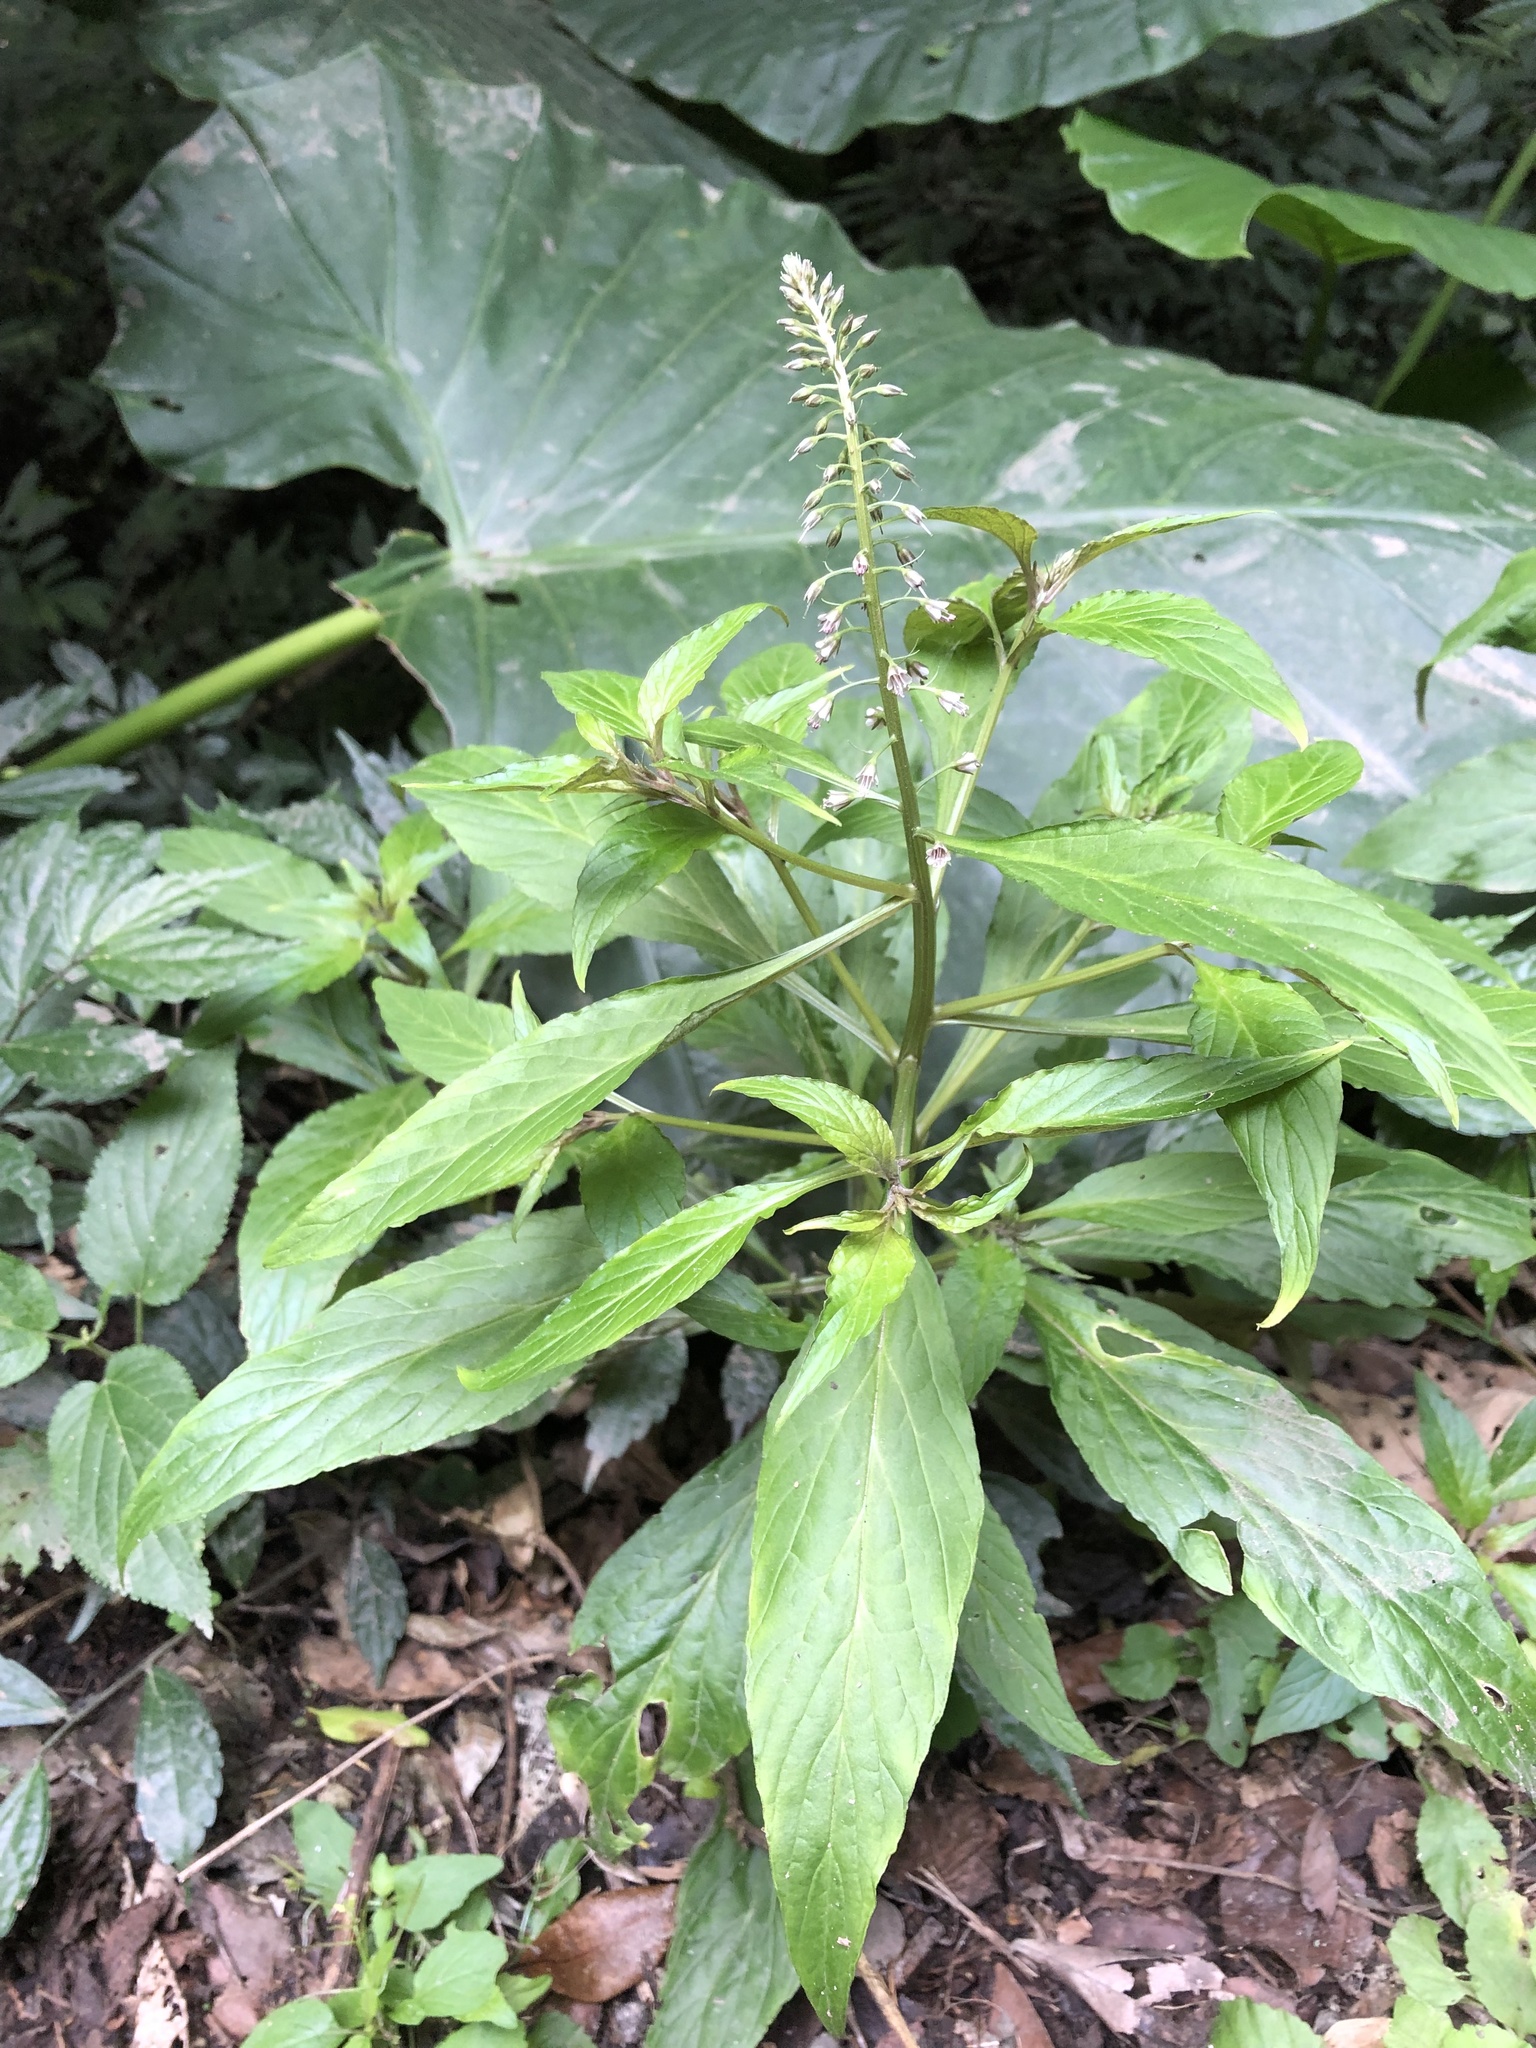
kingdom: Plantae
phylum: Tracheophyta
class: Magnoliopsida
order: Ericales
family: Primulaceae
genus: Lysimachia
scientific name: Lysimachia decurrens
